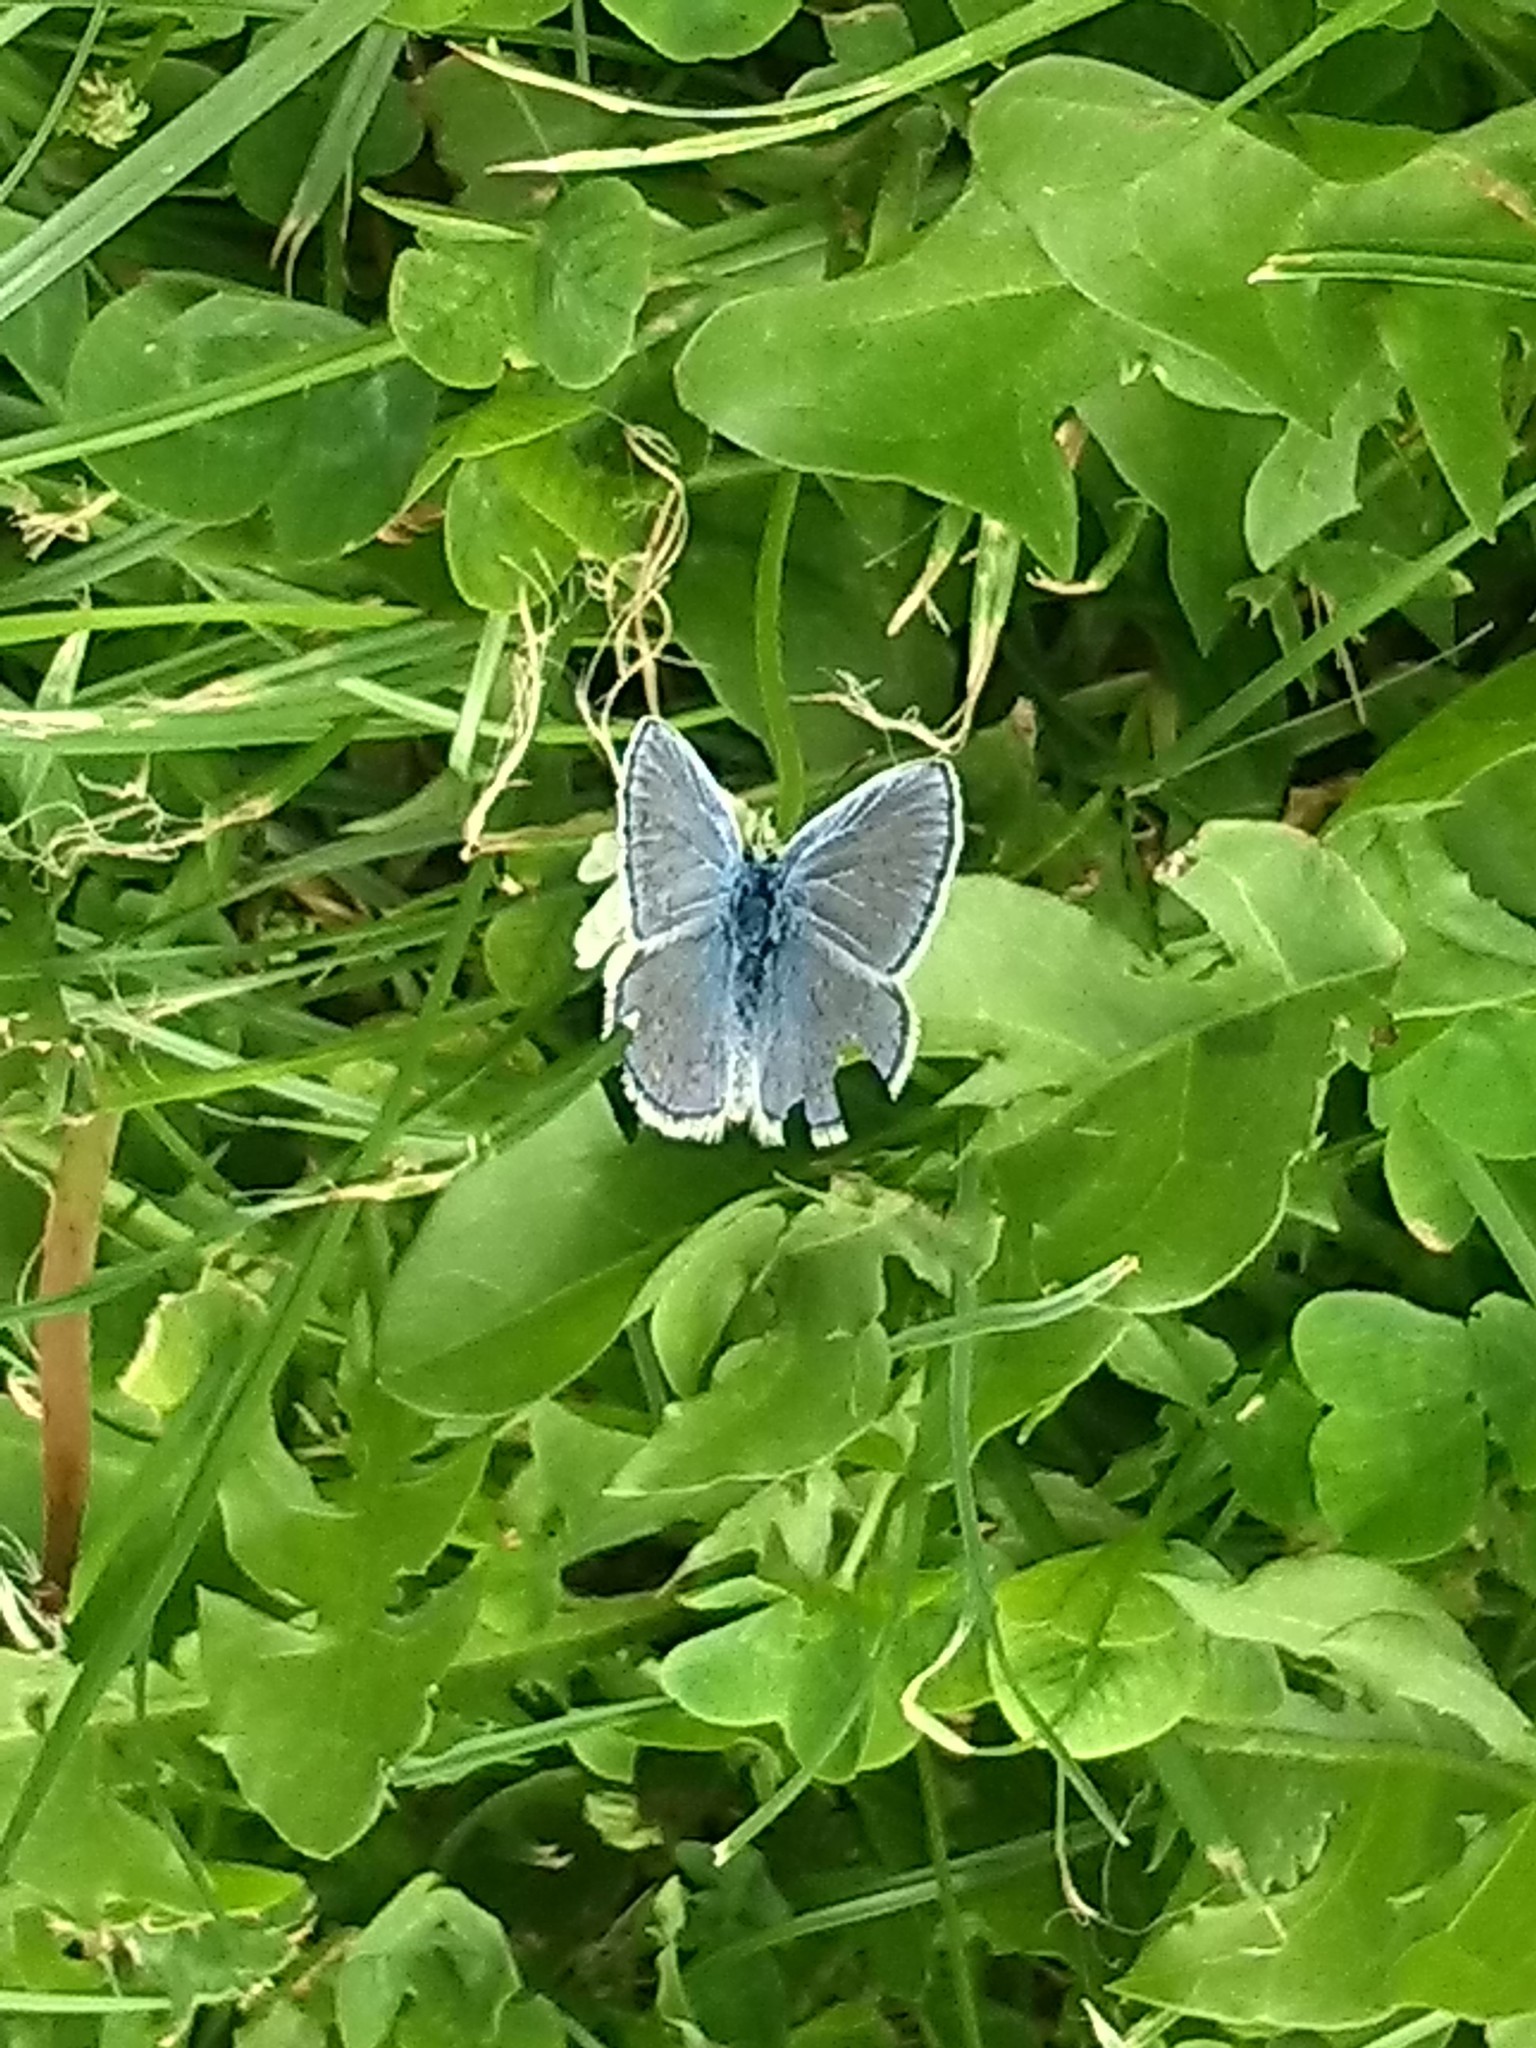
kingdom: Animalia
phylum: Arthropoda
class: Insecta
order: Lepidoptera
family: Lycaenidae
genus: Polyommatus
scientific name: Polyommatus icarus
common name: Common blue
